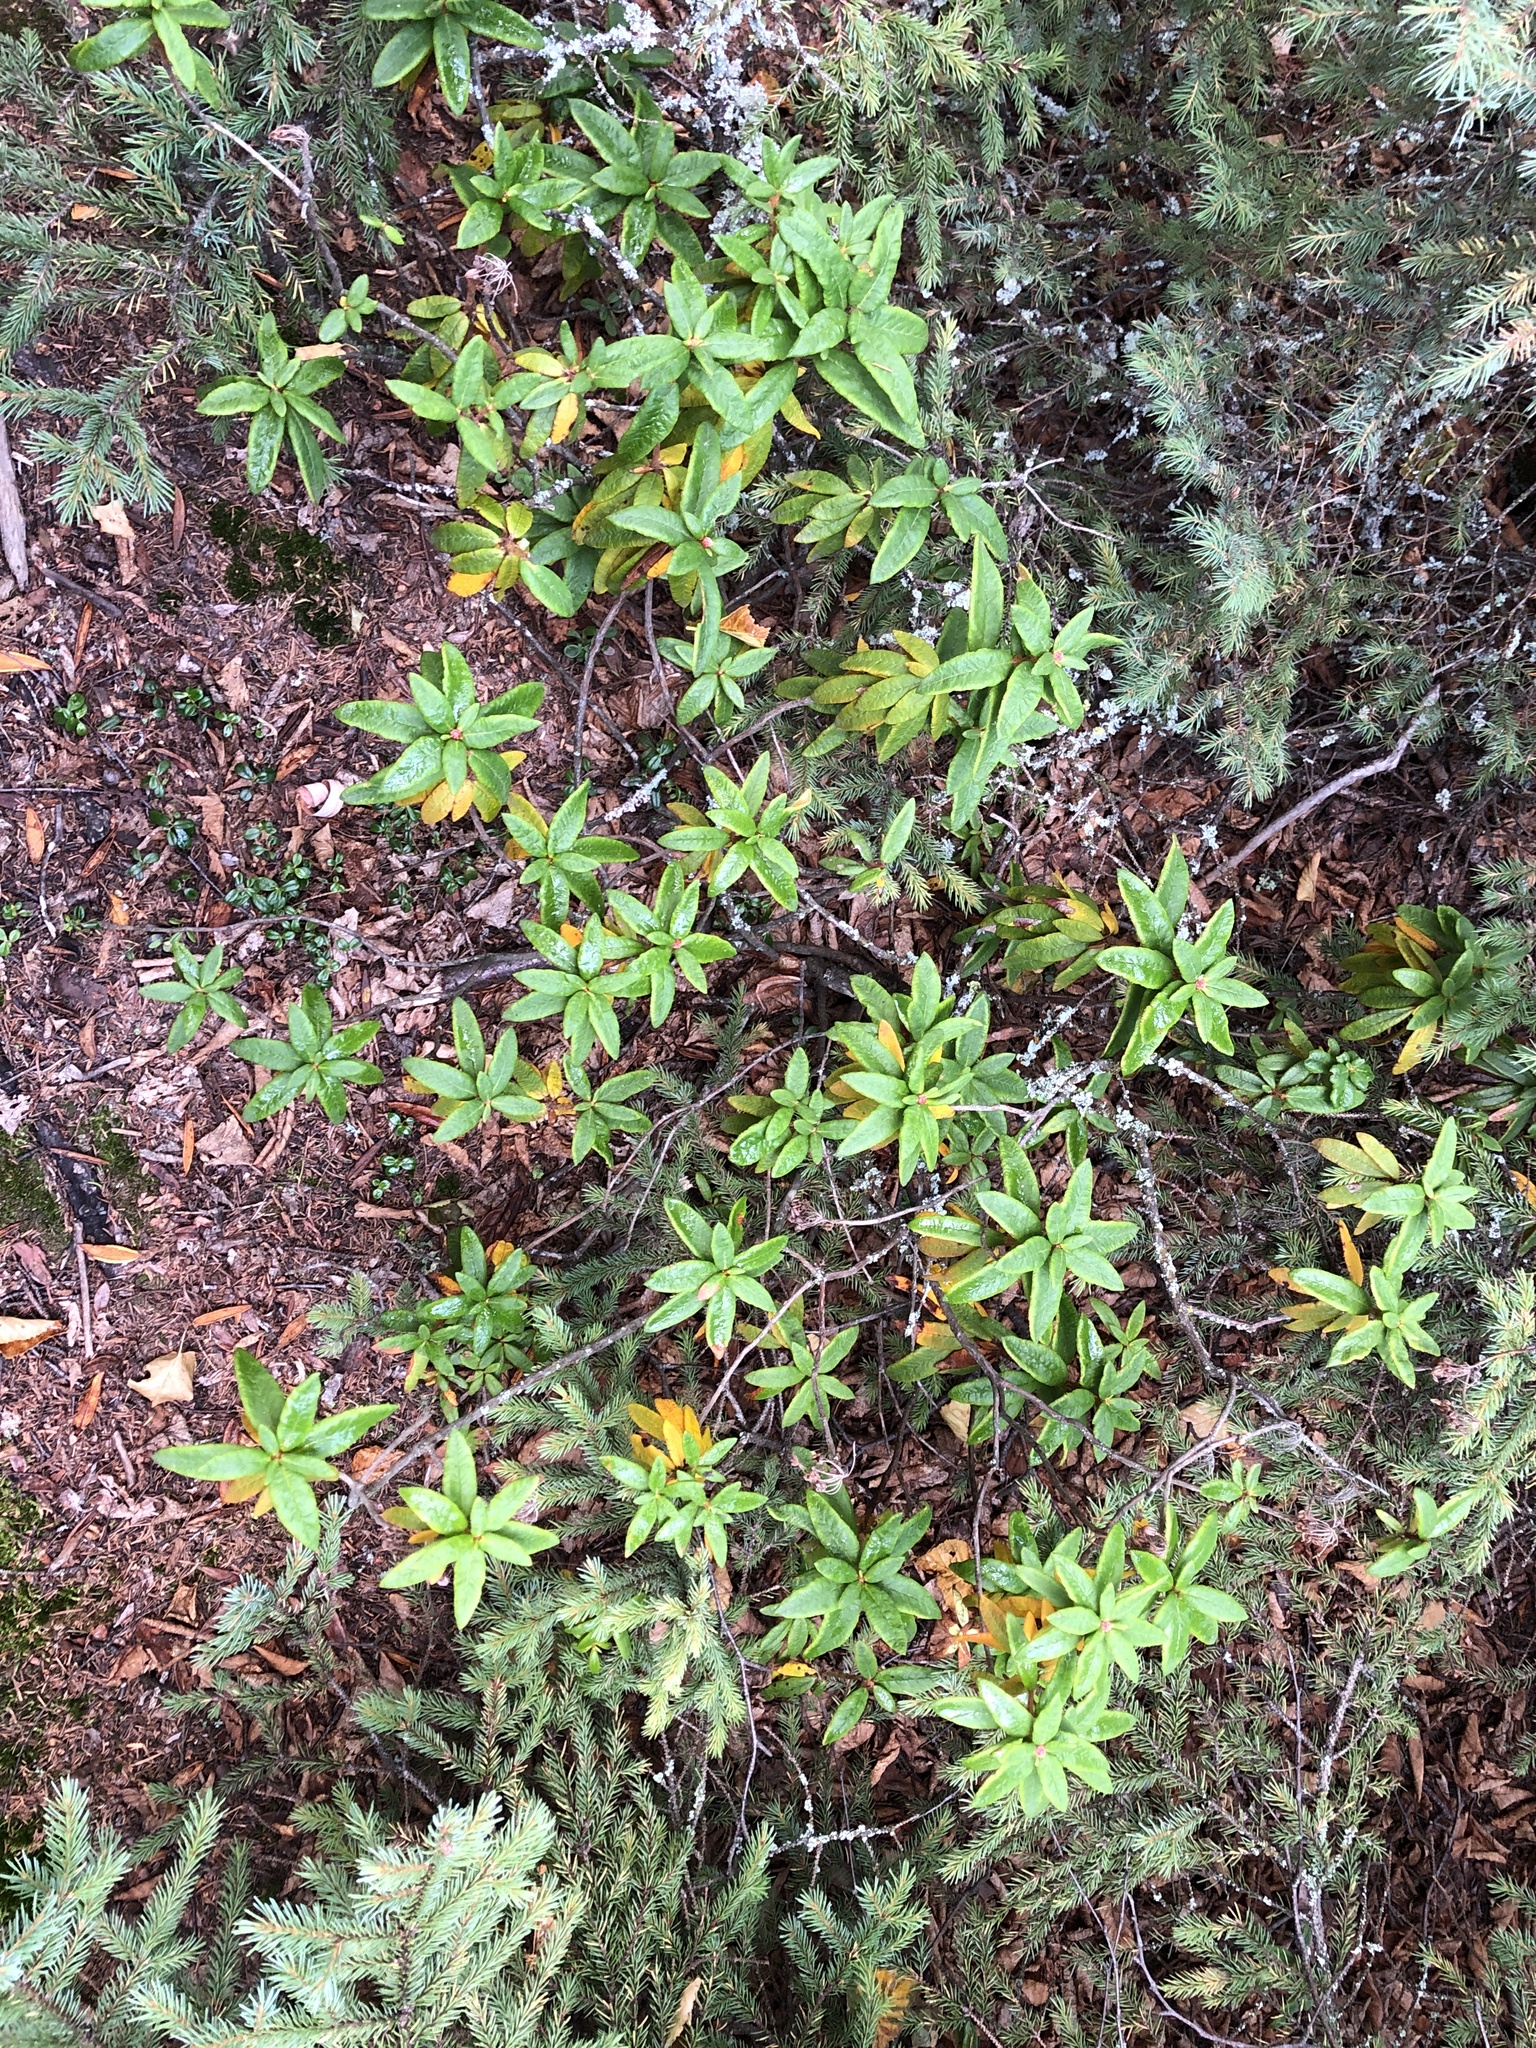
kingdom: Plantae
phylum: Tracheophyta
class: Magnoliopsida
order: Ericales
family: Ericaceae
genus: Rhododendron
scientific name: Rhododendron groenlandicum
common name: Bog labrador tea
